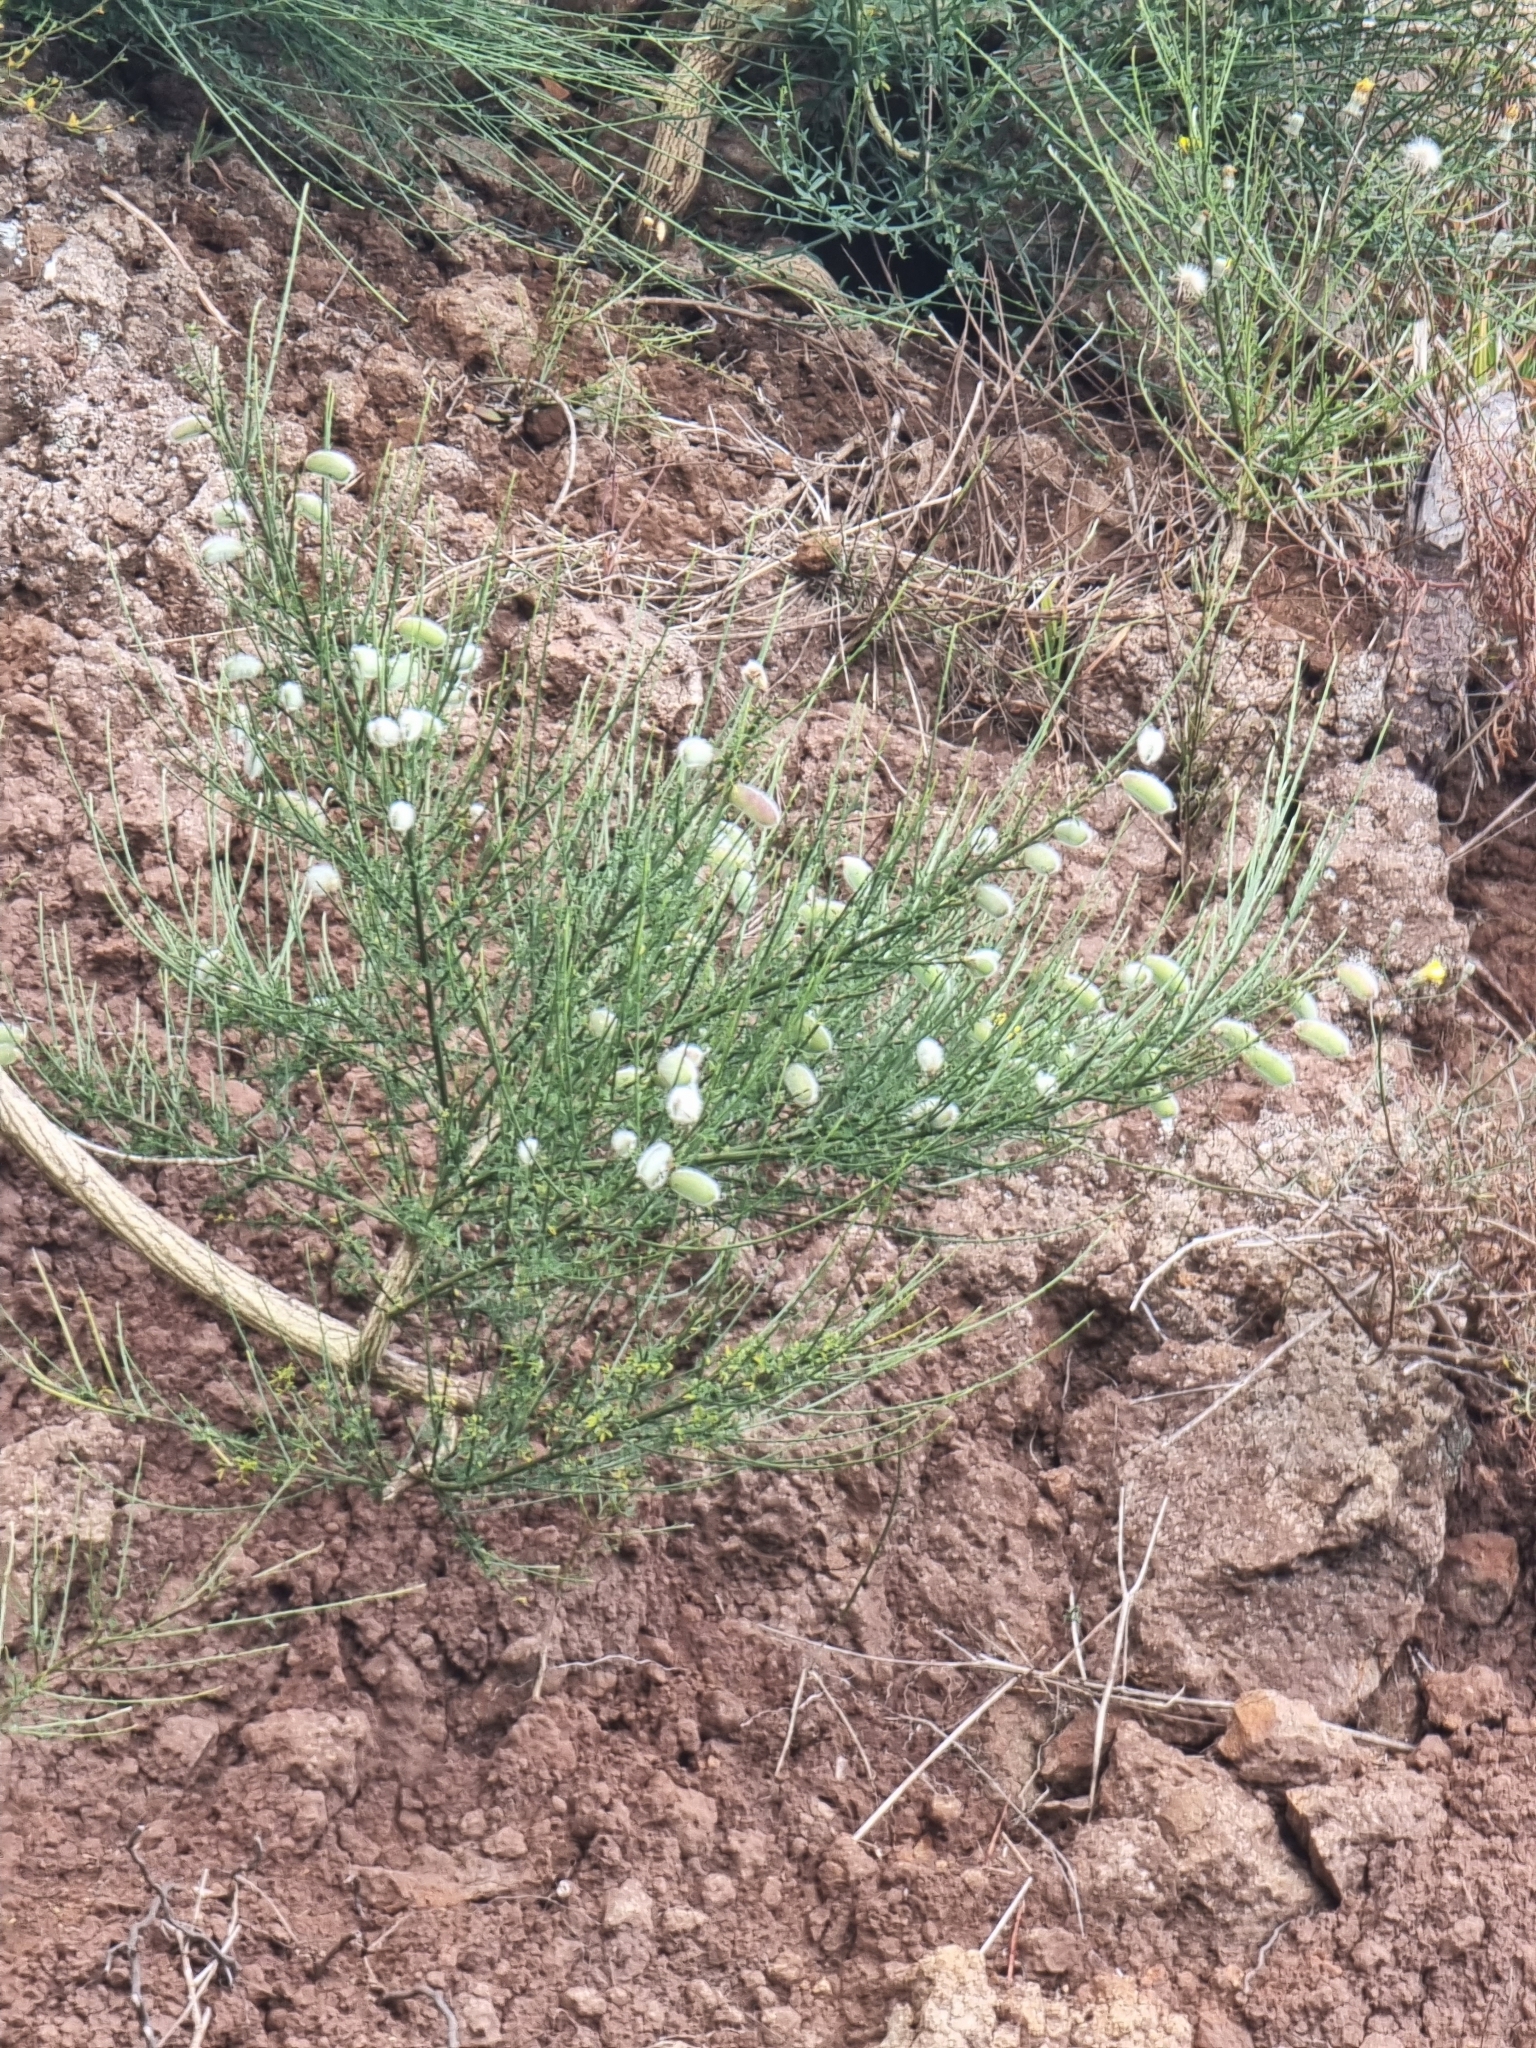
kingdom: Plantae
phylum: Tracheophyta
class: Magnoliopsida
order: Fabales
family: Fabaceae
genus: Cytisus
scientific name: Cytisus striatus
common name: Hairy-fruited broom
